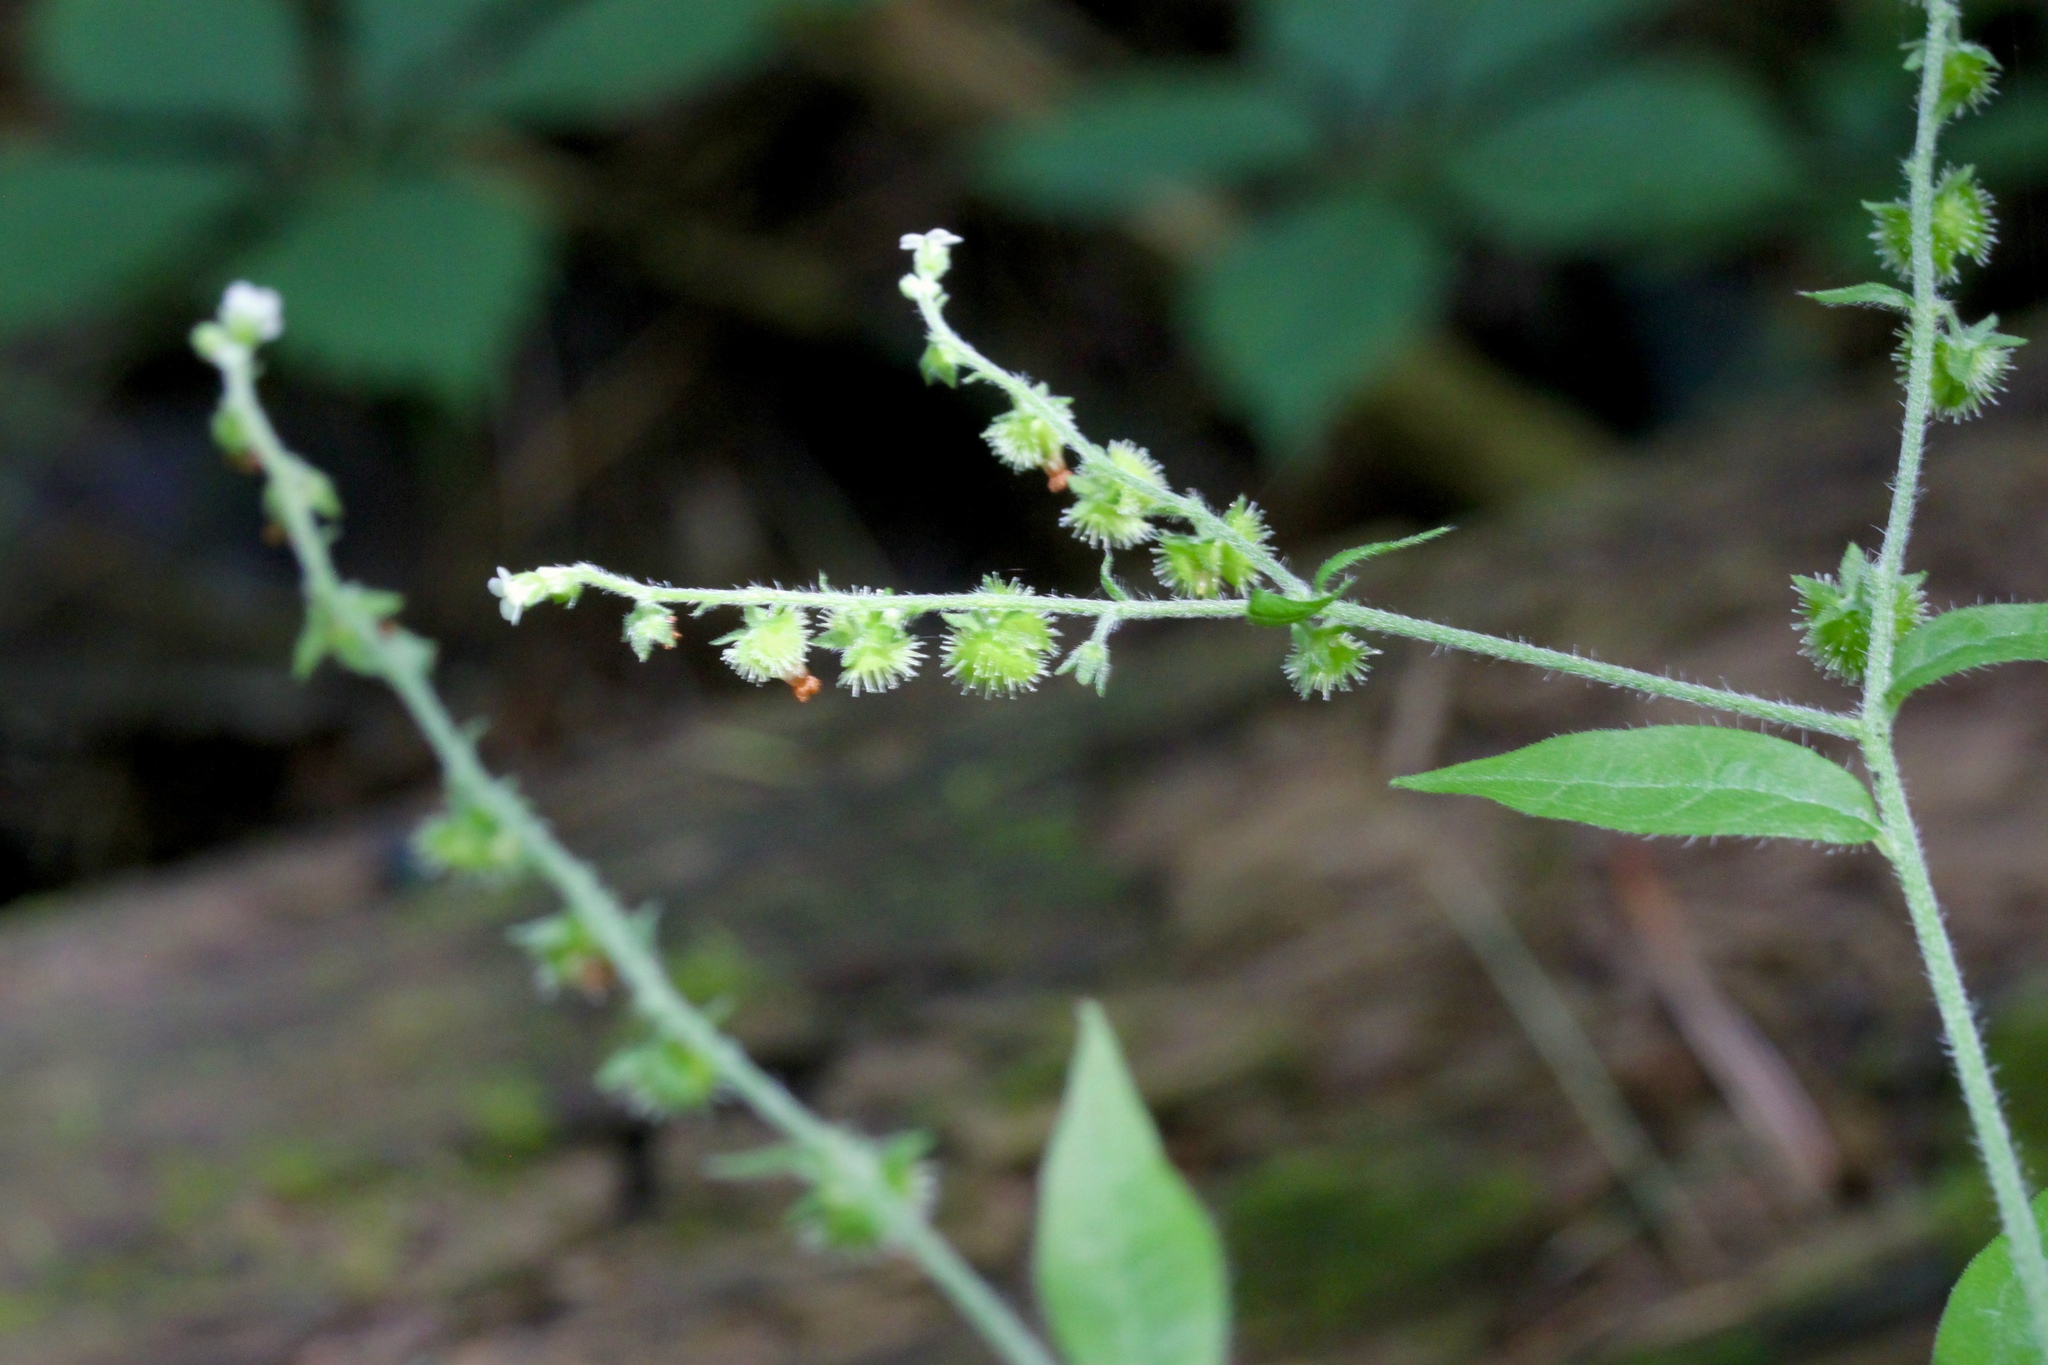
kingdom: Plantae
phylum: Tracheophyta
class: Magnoliopsida
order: Boraginales
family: Boraginaceae
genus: Hackelia
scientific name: Hackelia virginiana
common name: Beggar's-lice
